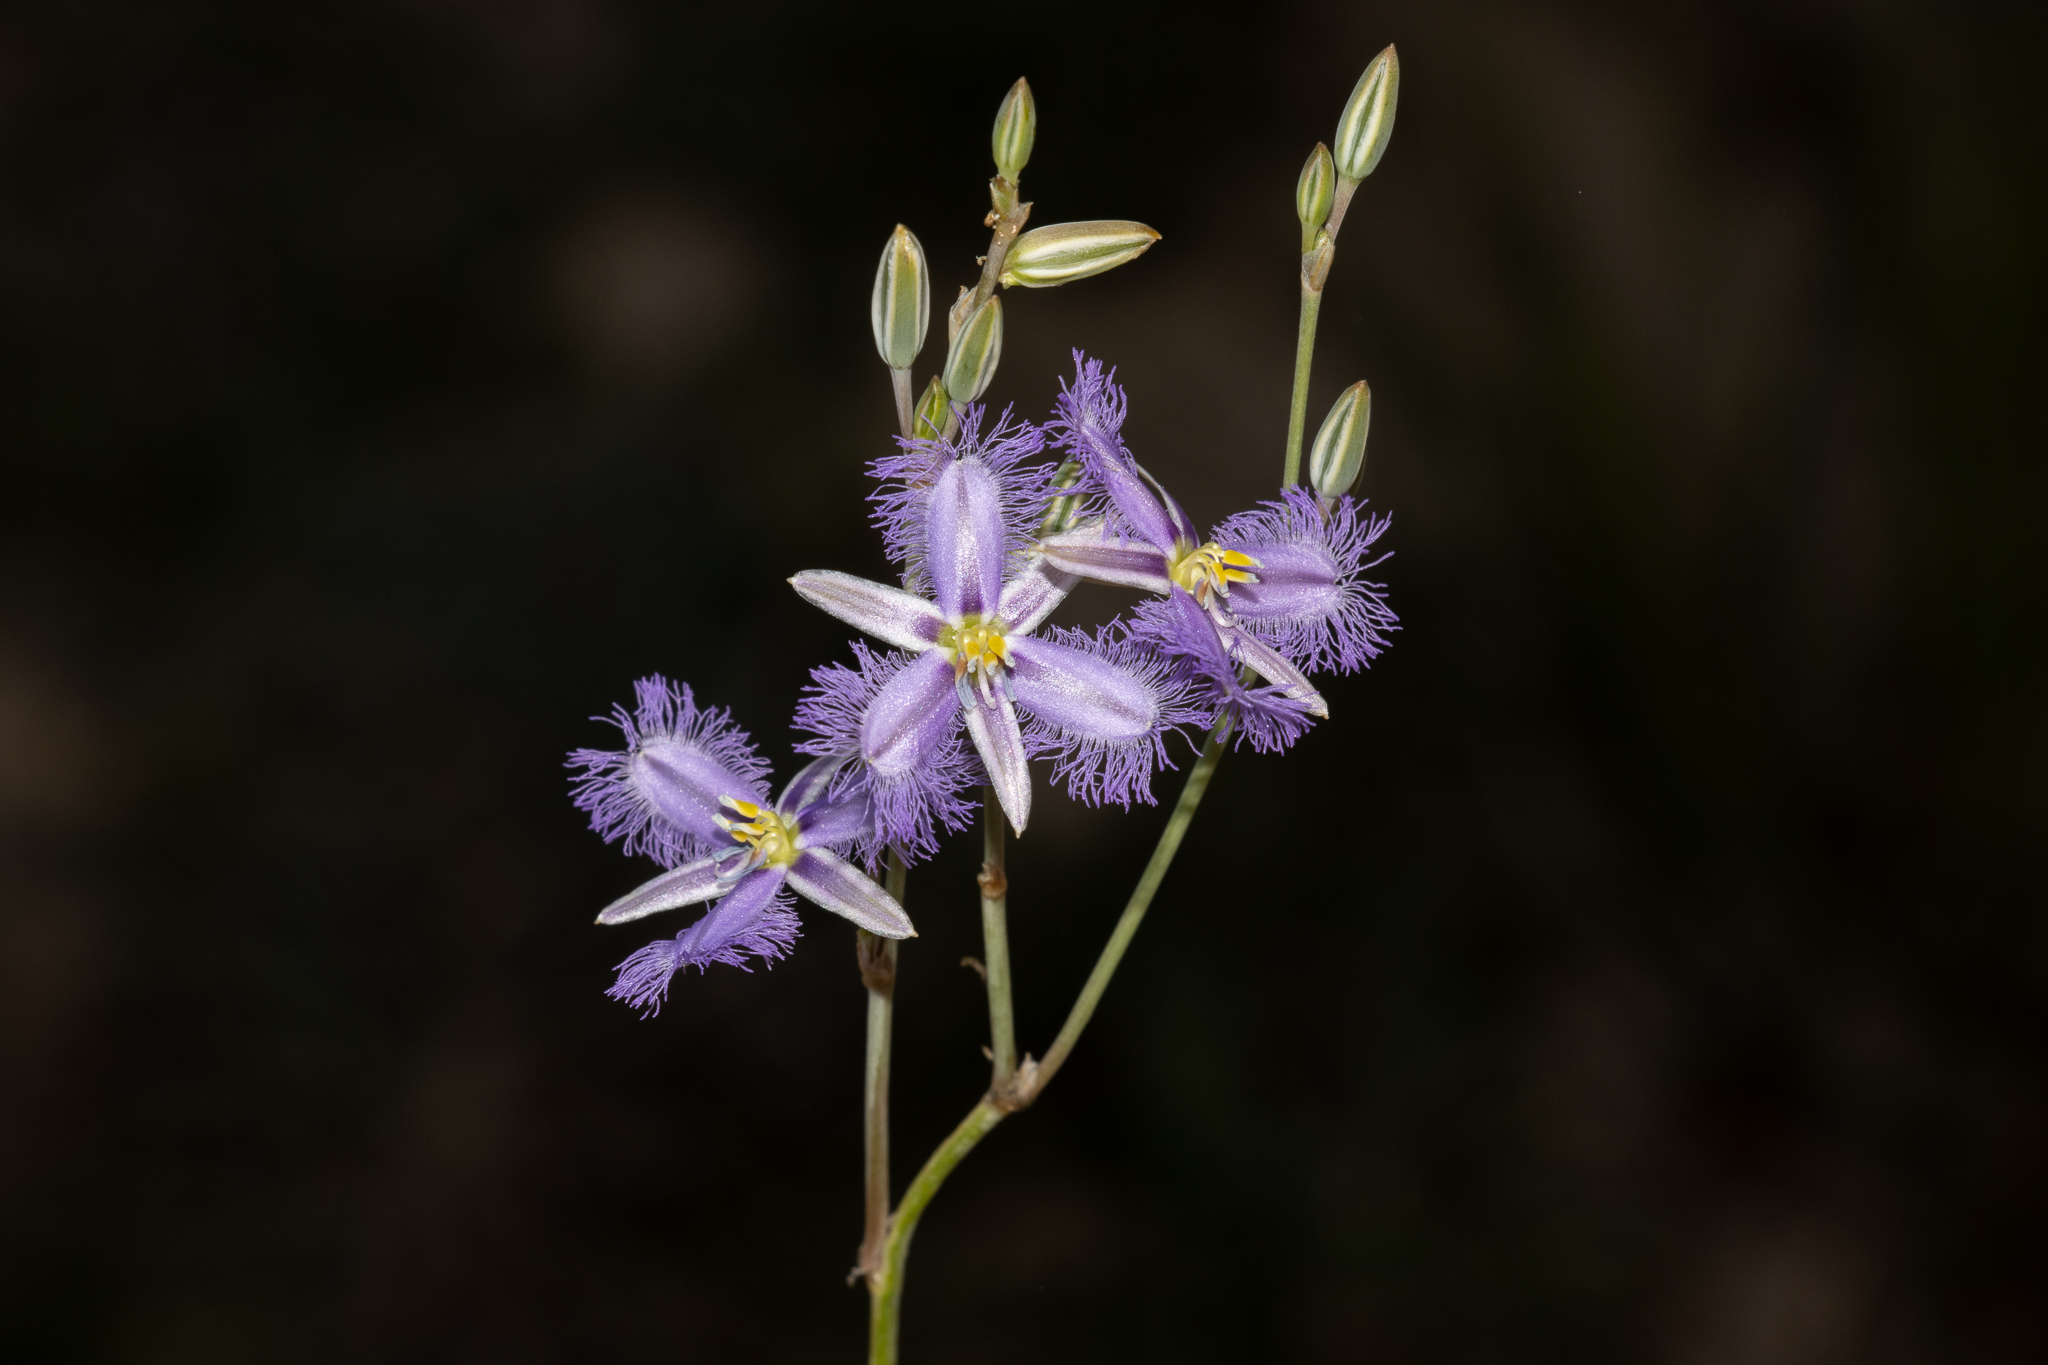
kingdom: Plantae
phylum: Tracheophyta
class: Liliopsida
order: Asparagales
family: Asparagaceae
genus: Thysanotus
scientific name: Thysanotus baueri
